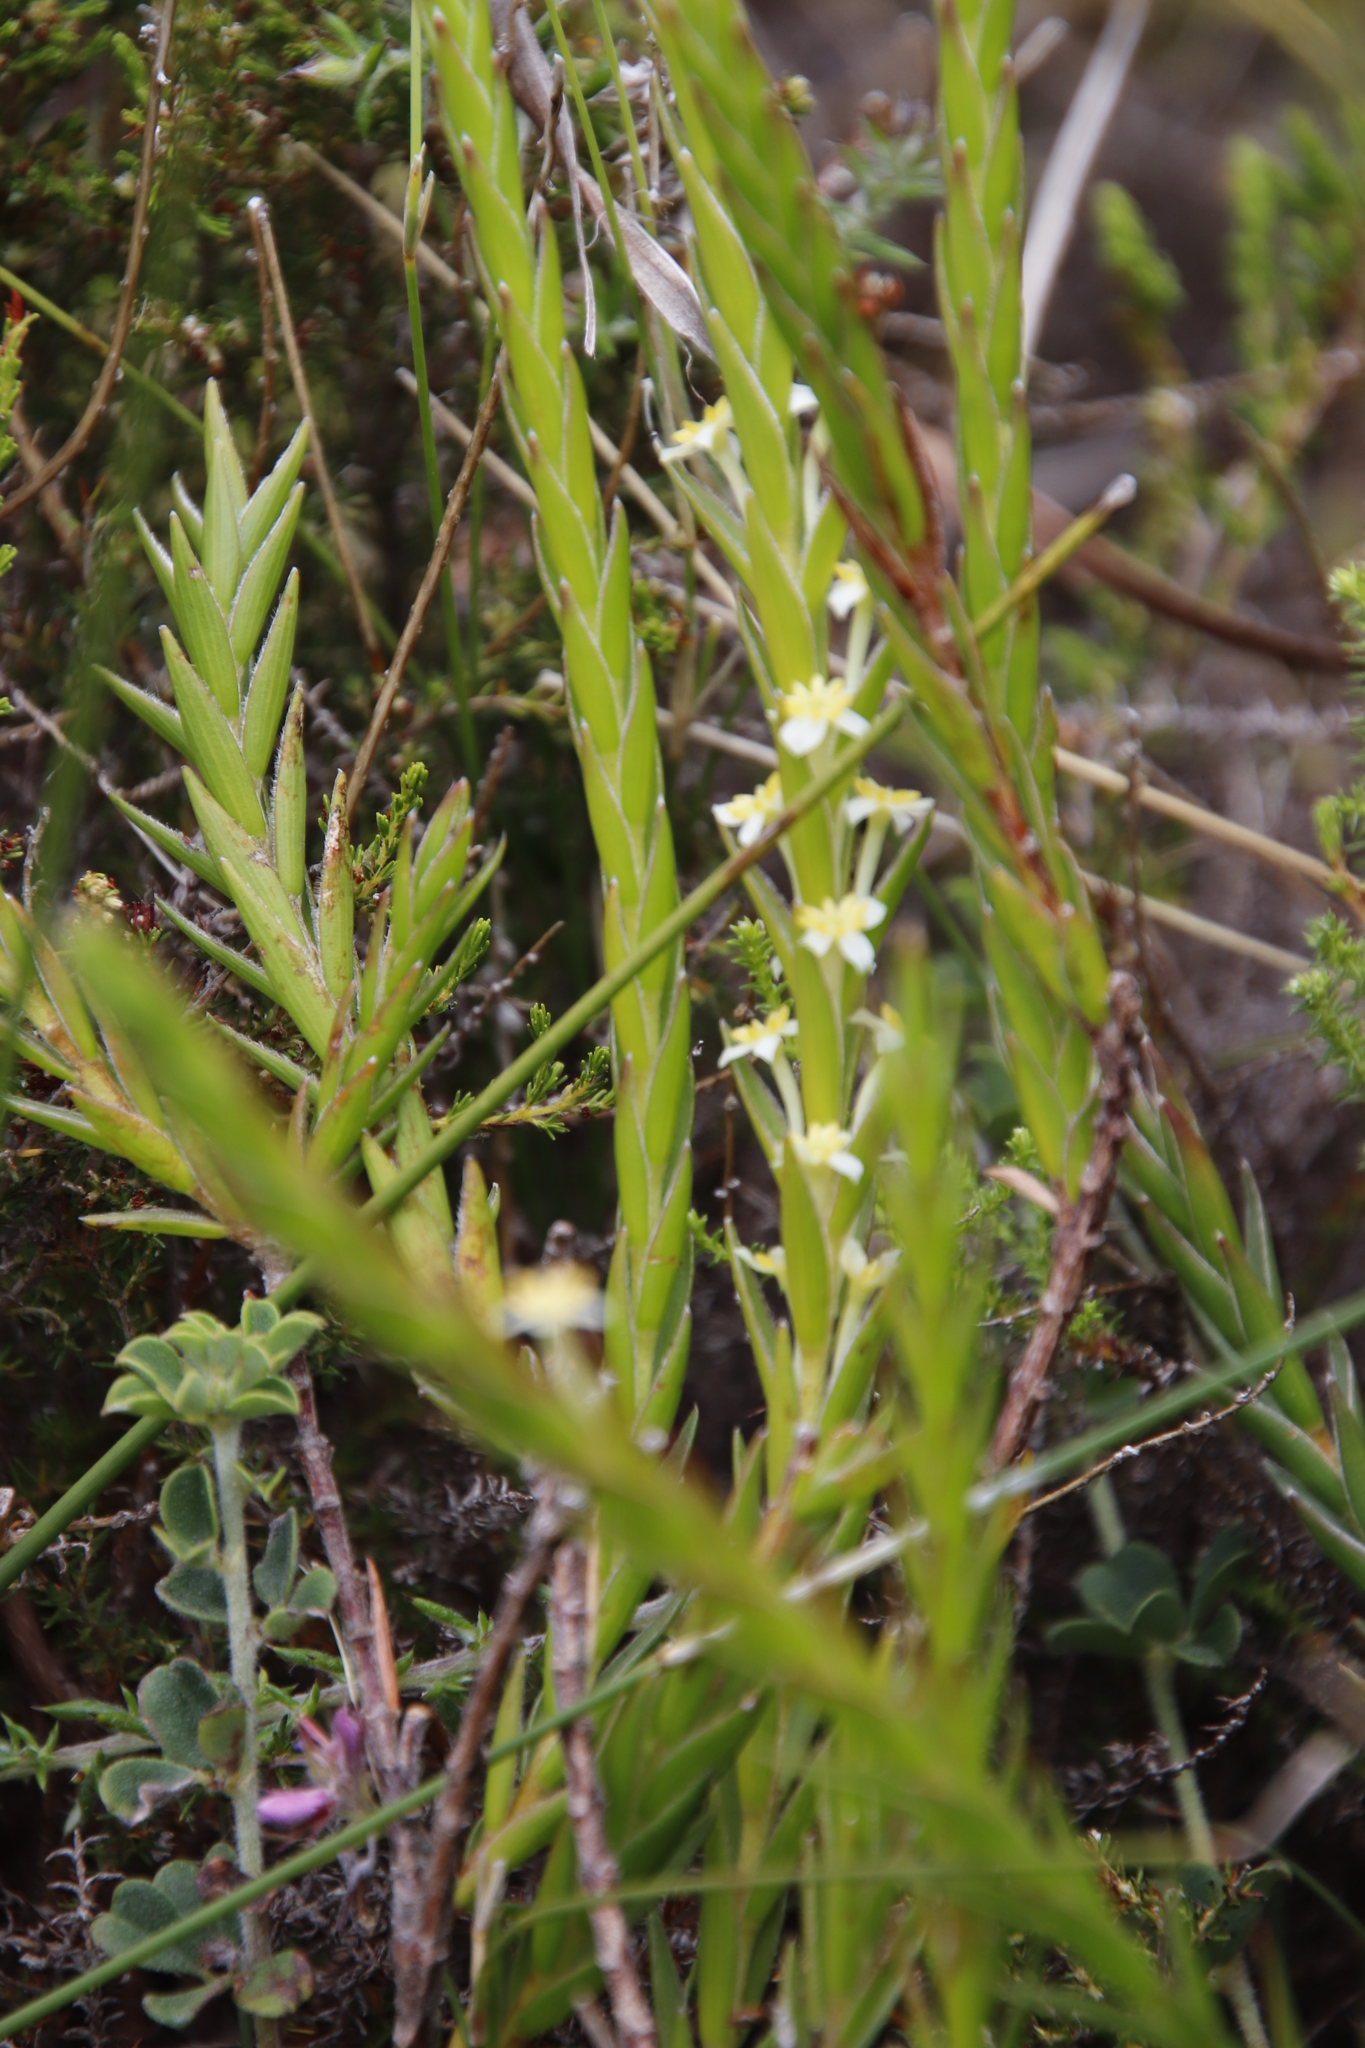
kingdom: Plantae
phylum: Tracheophyta
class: Magnoliopsida
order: Malvales
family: Thymelaeaceae
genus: Struthiola
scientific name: Struthiola ciliata
